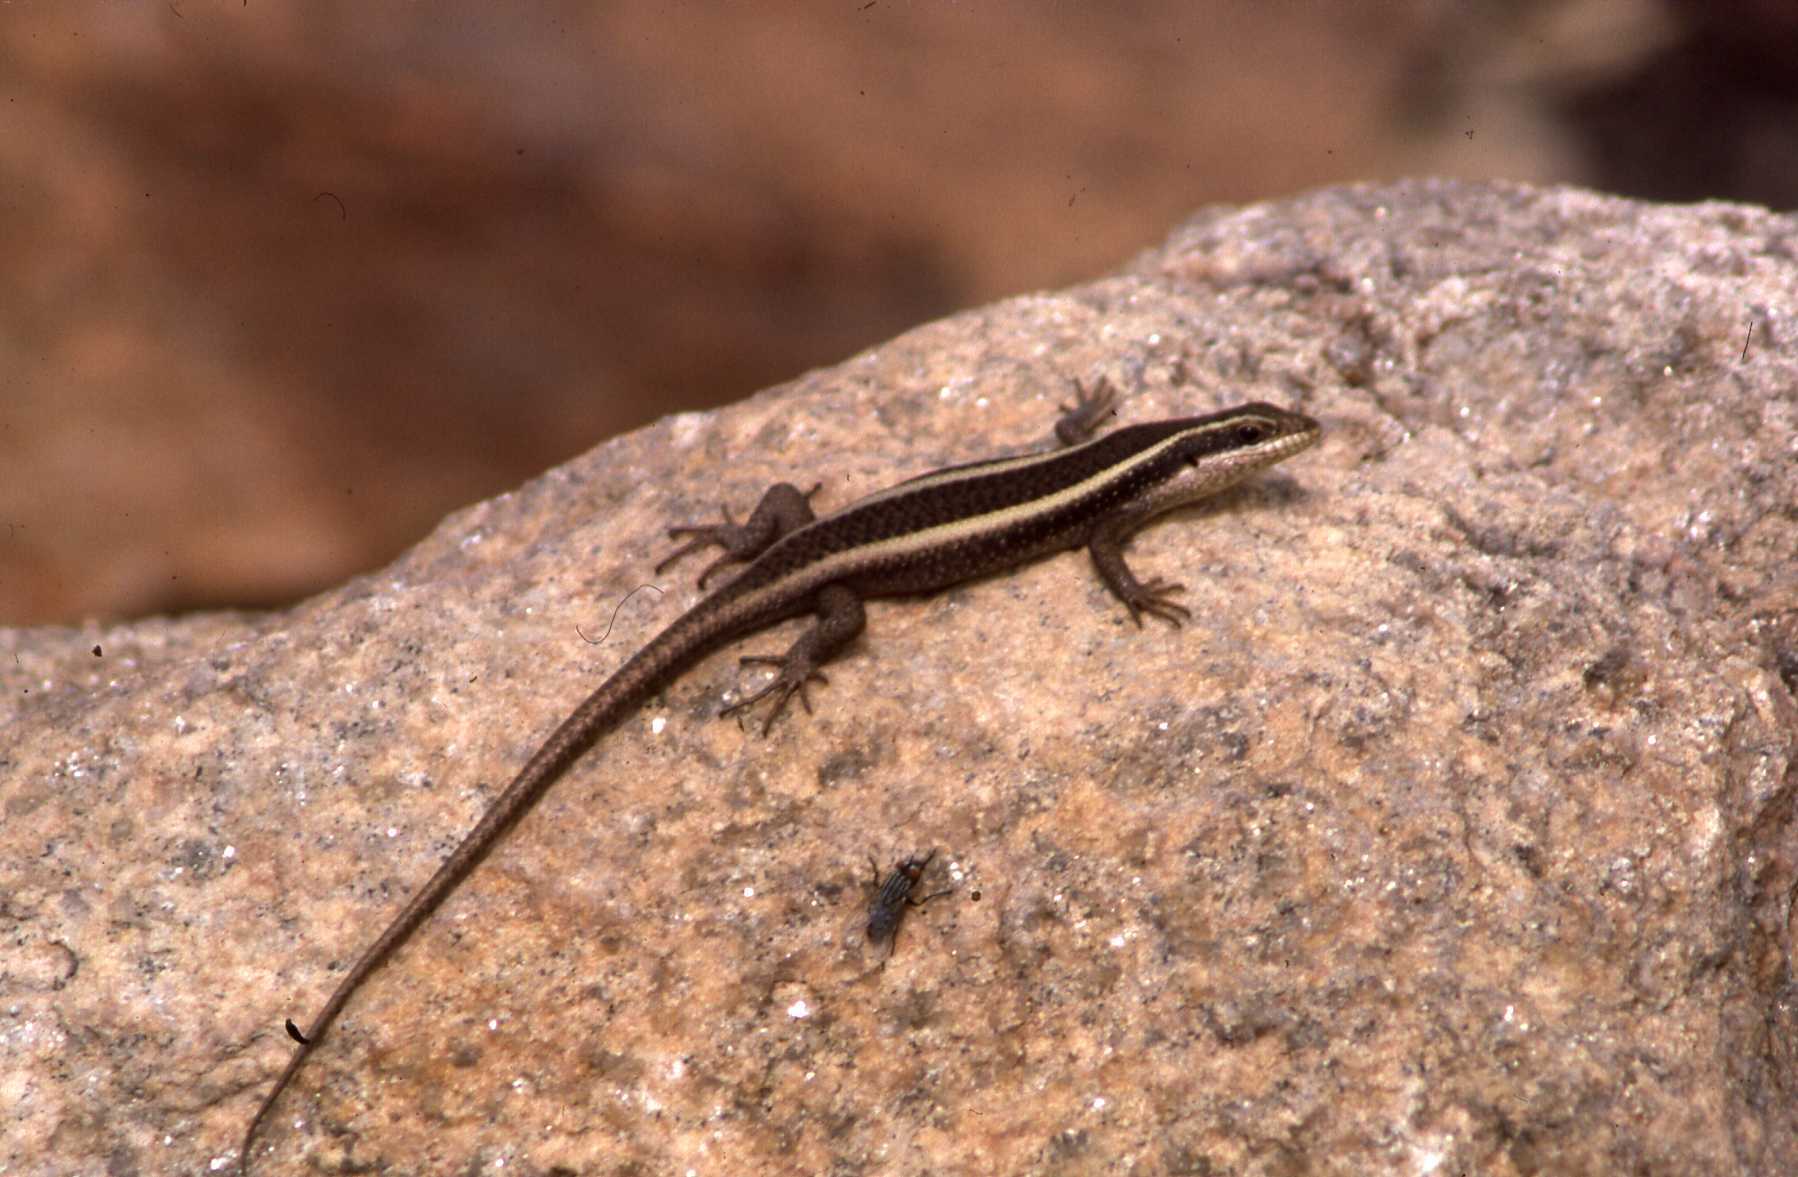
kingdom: Animalia
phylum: Chordata
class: Squamata
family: Scincidae
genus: Trachylepis
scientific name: Trachylepis striata
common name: African striped mabuya
